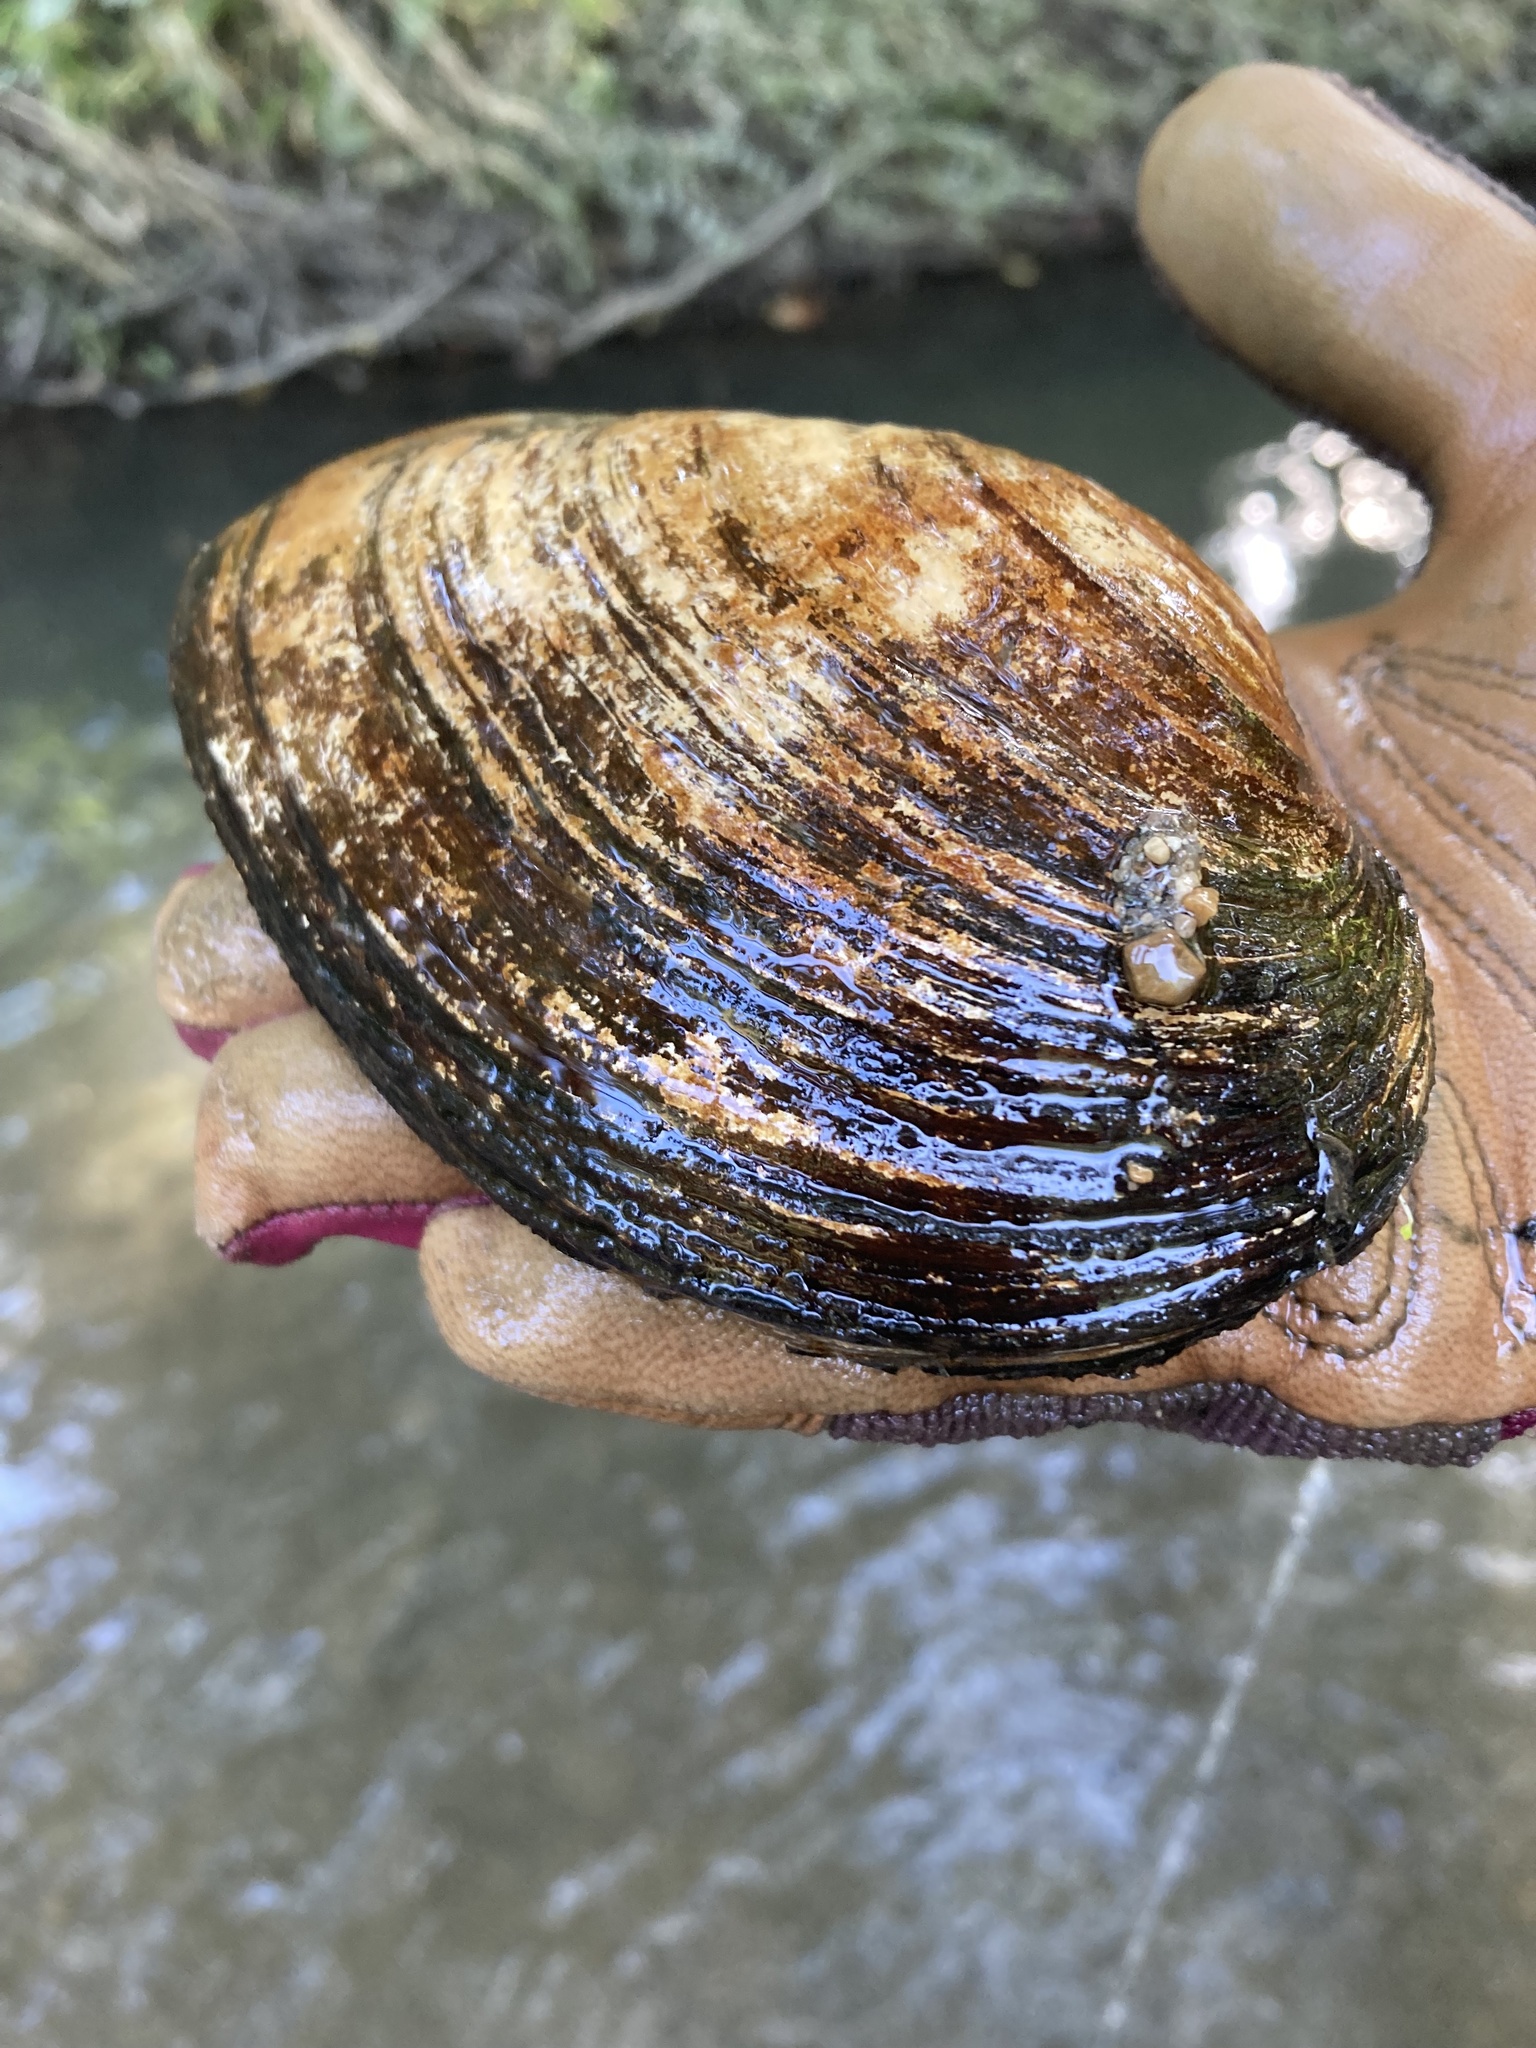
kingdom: Animalia
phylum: Mollusca
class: Bivalvia
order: Unionida
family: Unionidae
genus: Pyganodon
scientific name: Pyganodon grandis
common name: Giant floater
